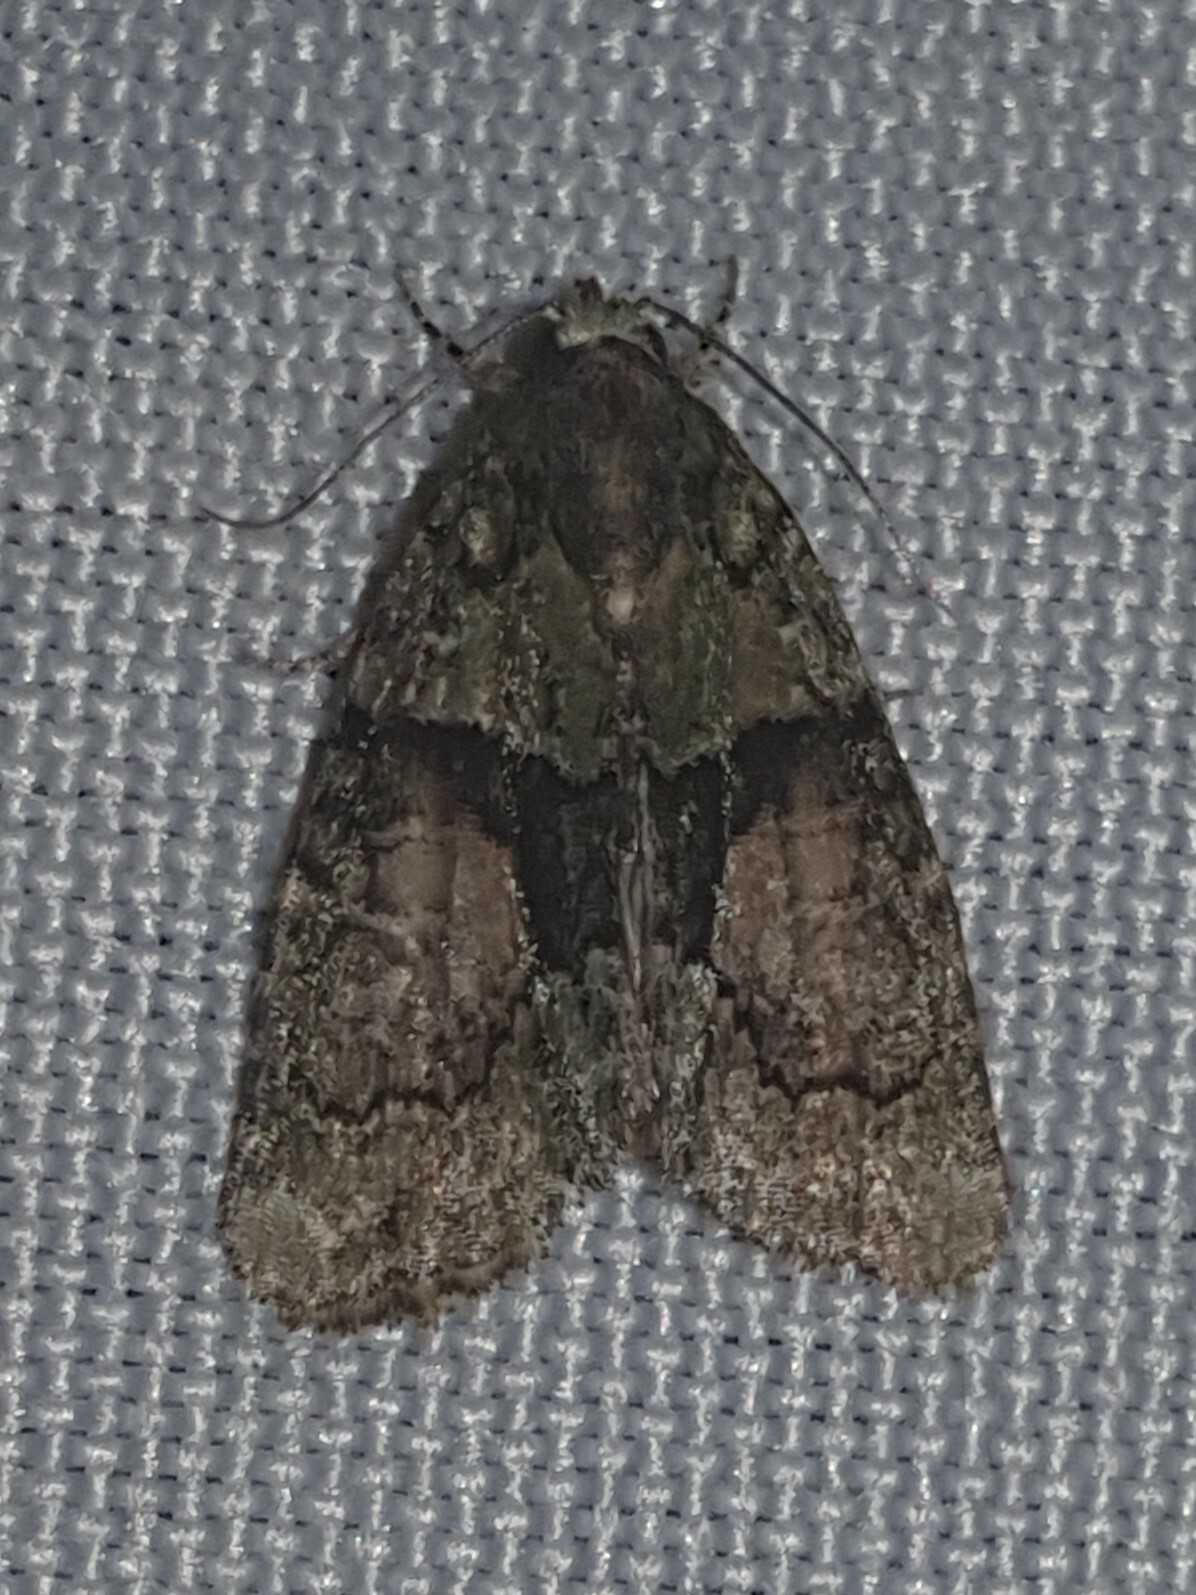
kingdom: Animalia
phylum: Arthropoda
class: Insecta
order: Lepidoptera
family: Noctuidae
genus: Cryphia
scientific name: Cryphia algae
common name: Tree-lichen beauty
